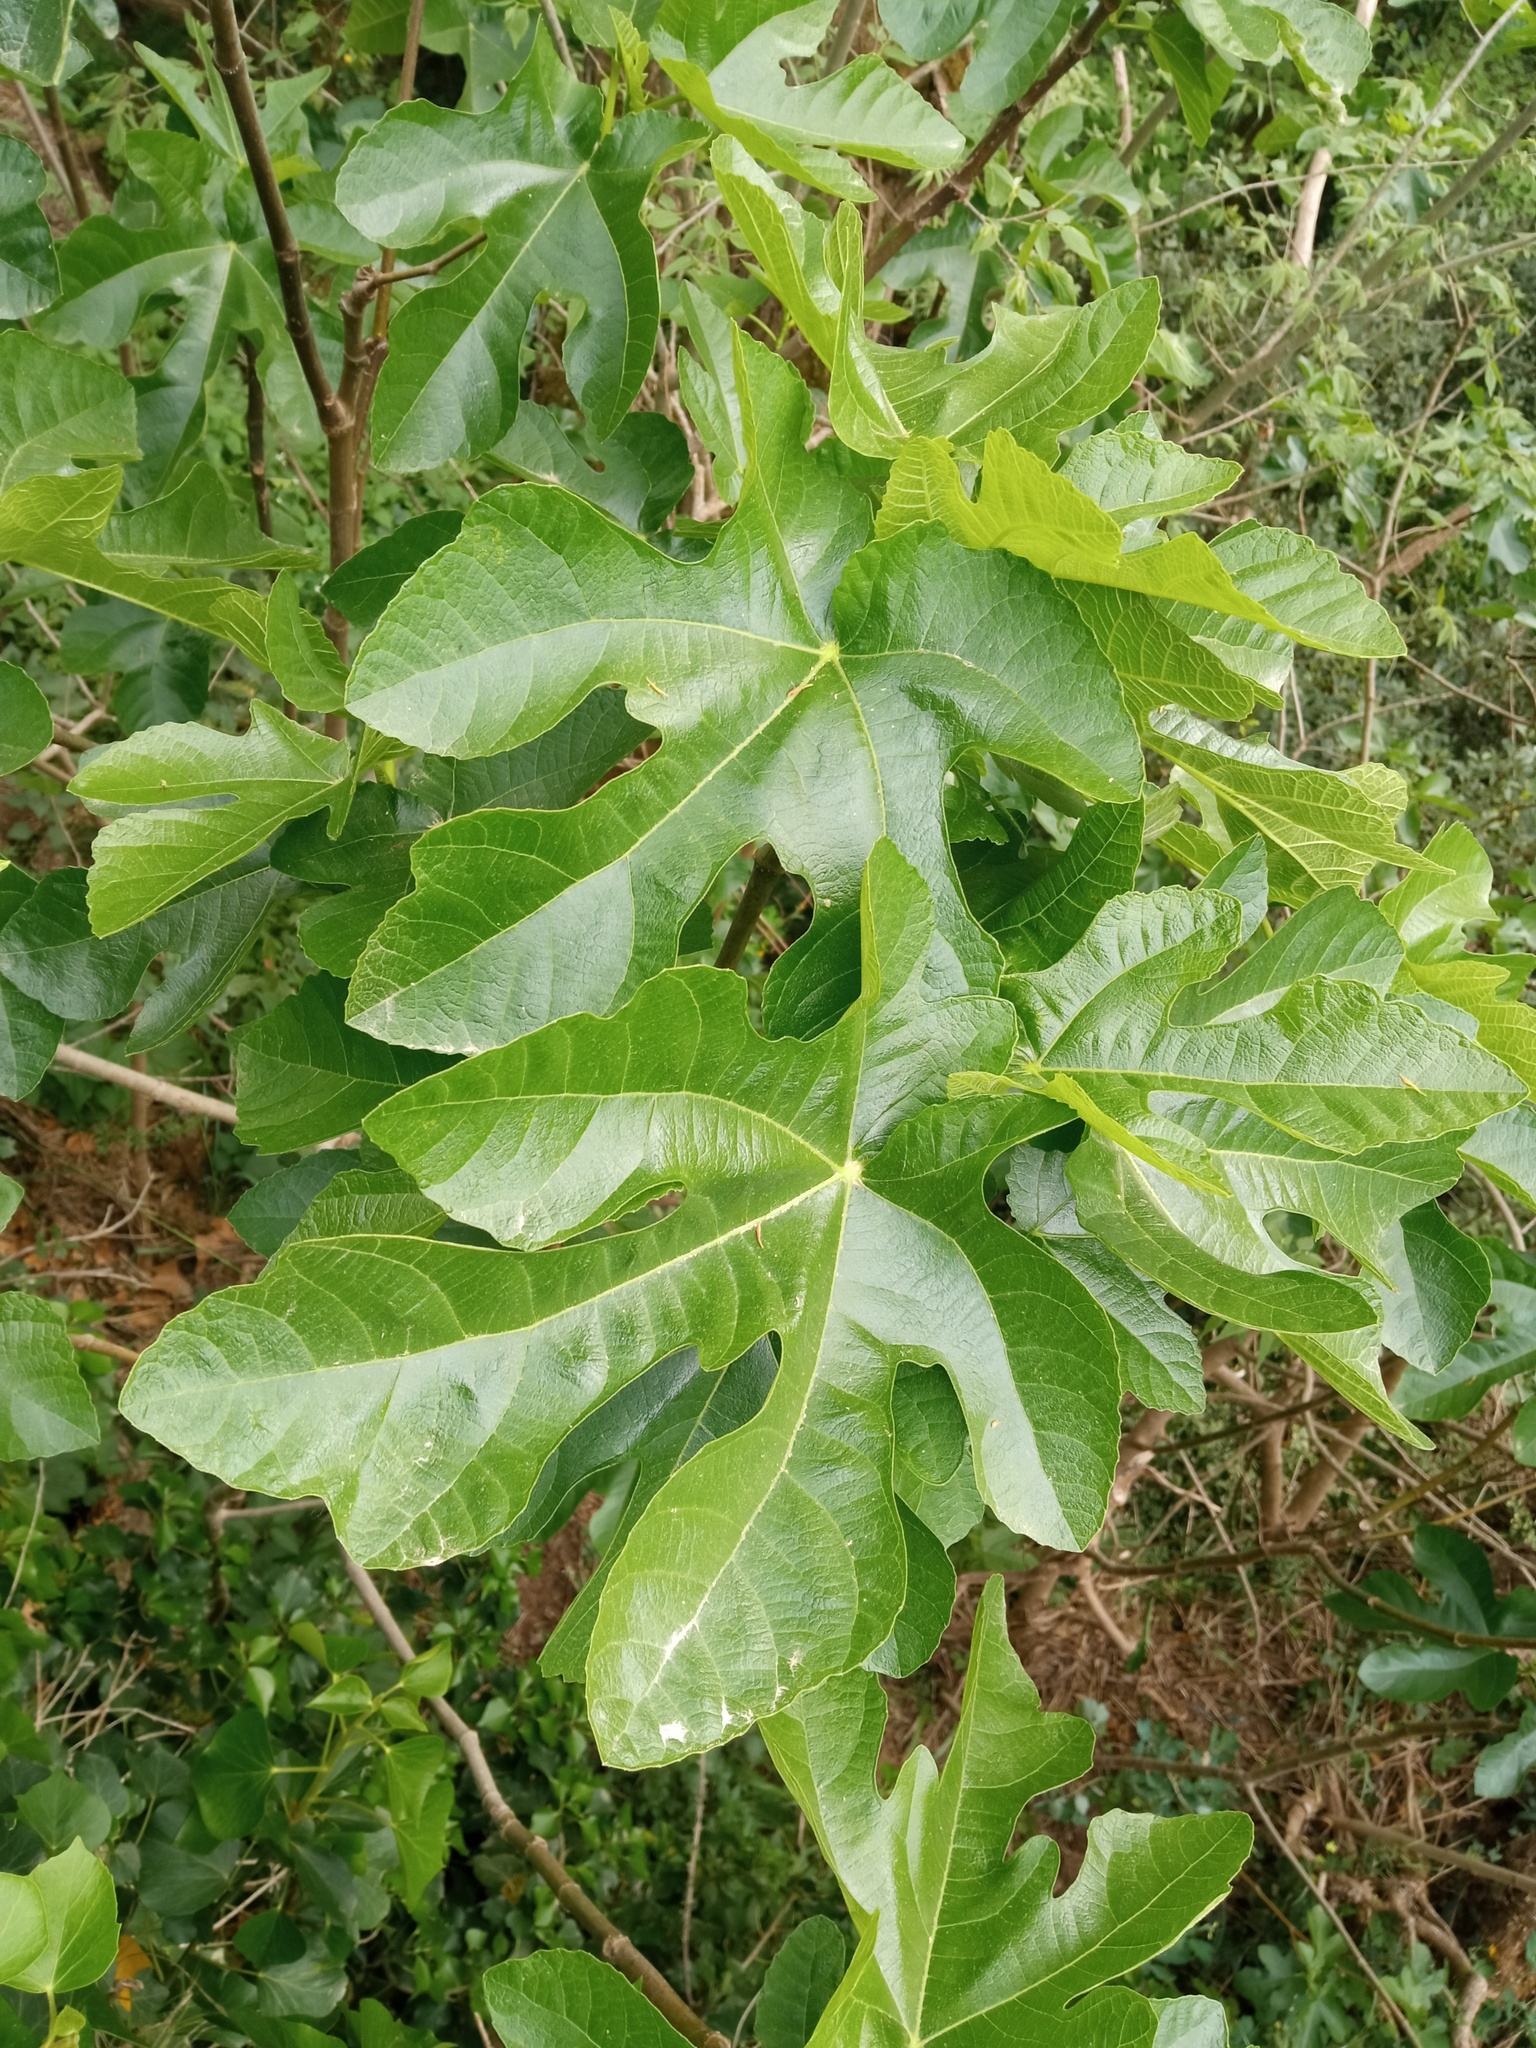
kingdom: Plantae
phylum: Tracheophyta
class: Magnoliopsida
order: Rosales
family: Moraceae
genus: Ficus
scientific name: Ficus carica
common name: Fig
